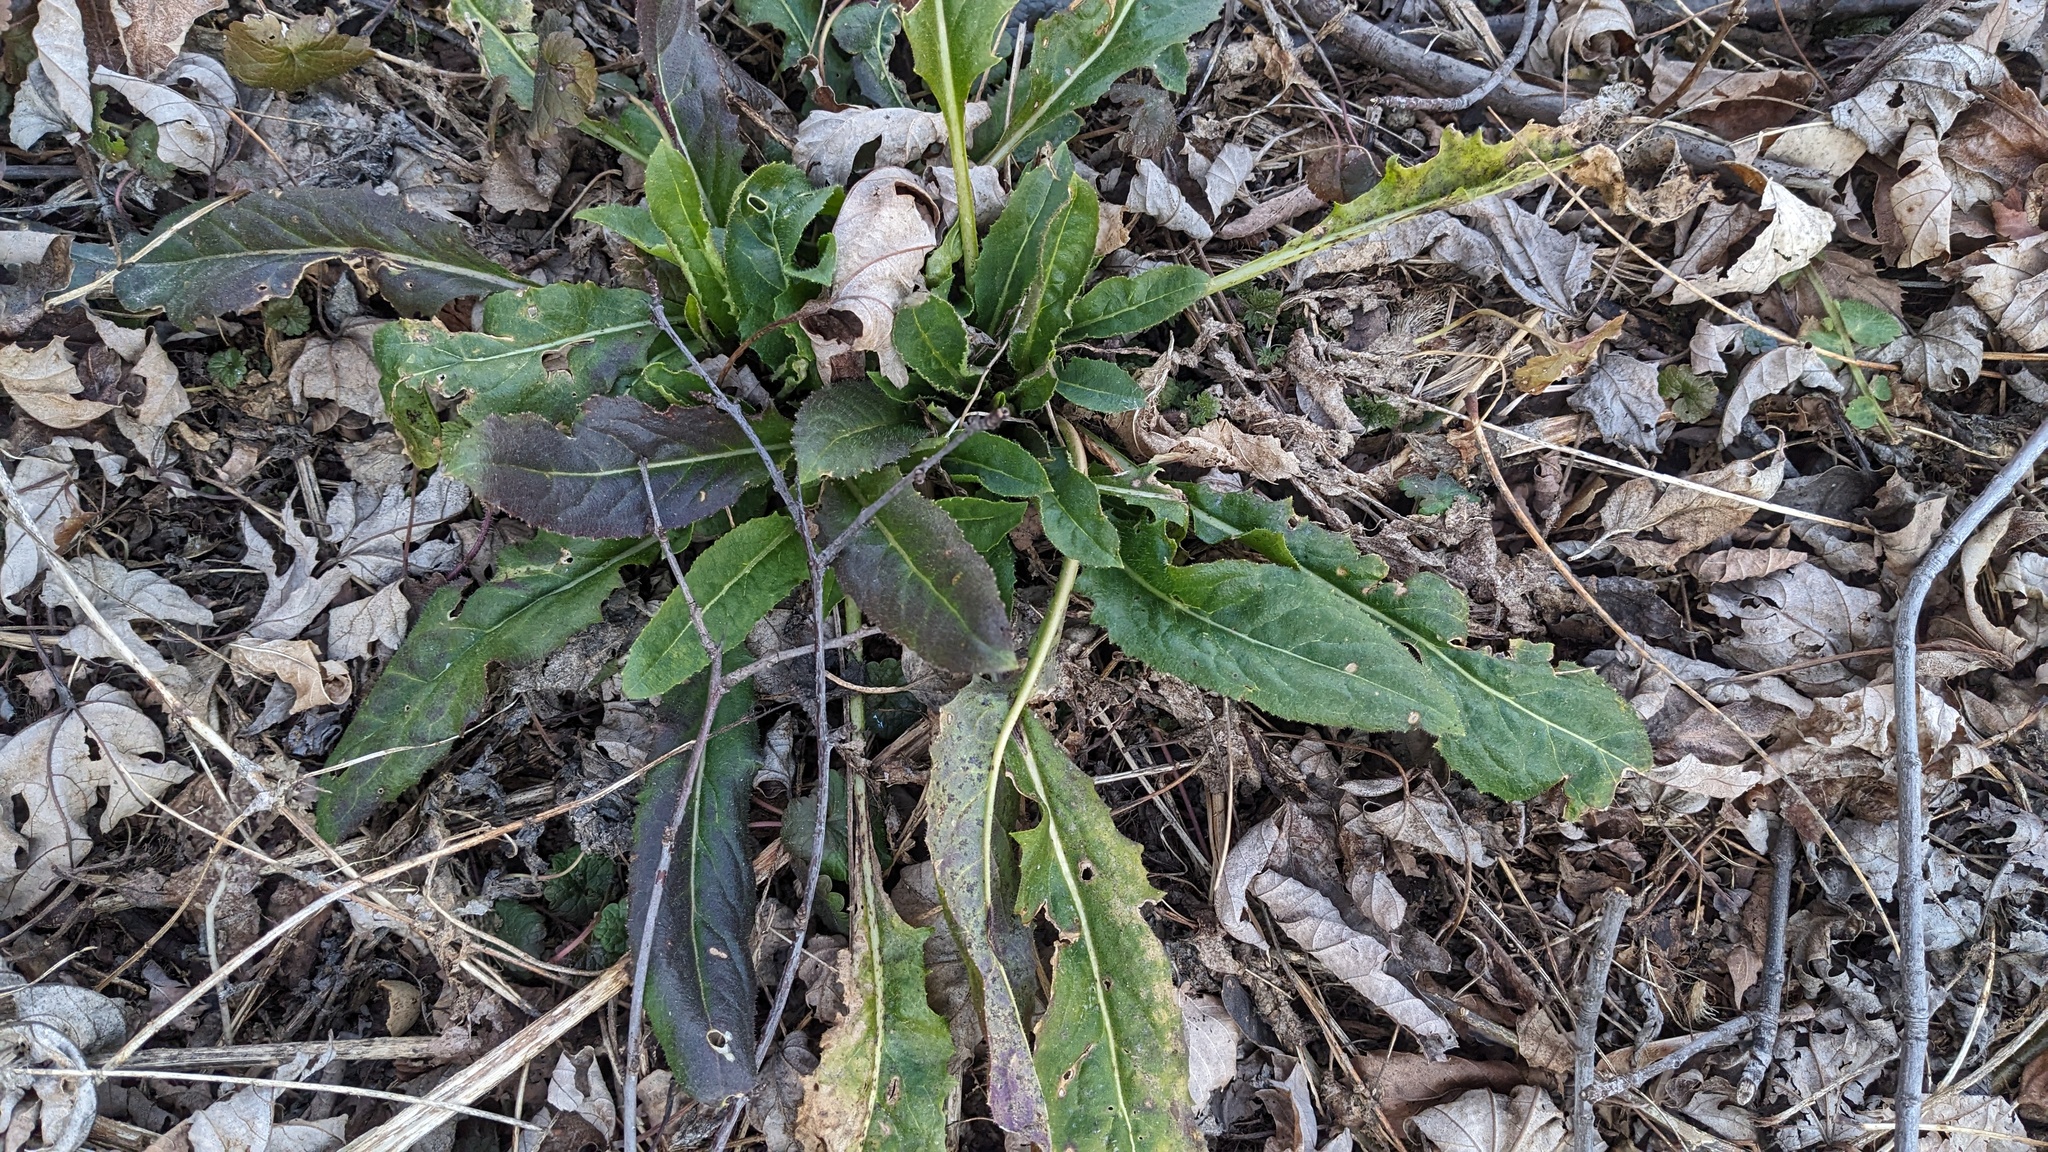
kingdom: Plantae
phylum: Tracheophyta
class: Magnoliopsida
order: Brassicales
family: Brassicaceae
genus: Hesperis
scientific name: Hesperis matronalis
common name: Dame's-violet
